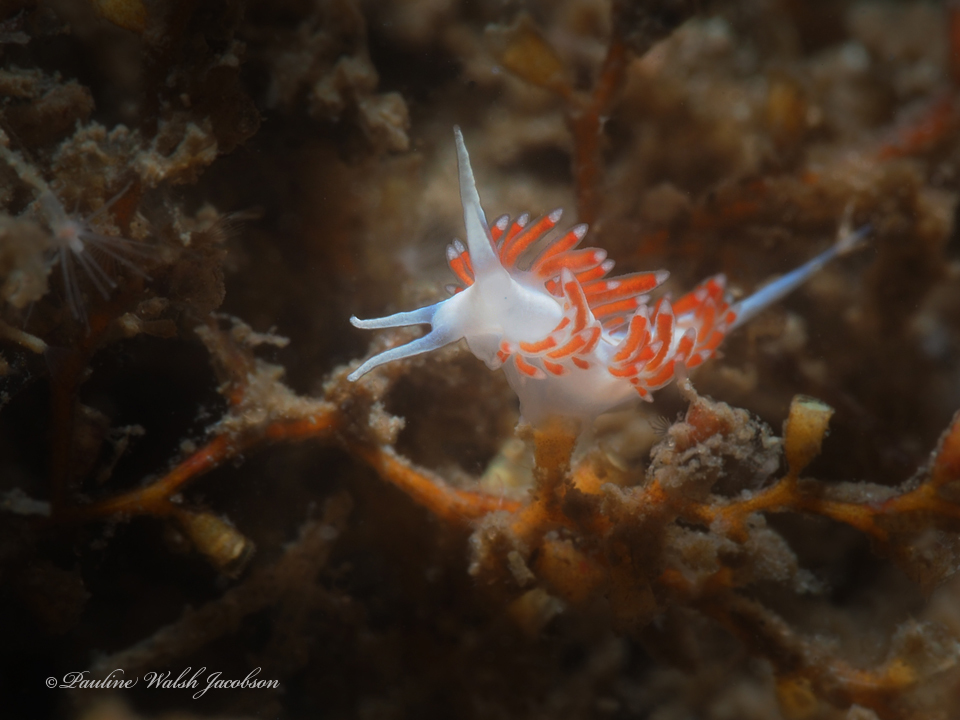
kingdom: Animalia
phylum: Mollusca
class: Gastropoda
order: Nudibranchia
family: Flabellinidae
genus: Flabellina
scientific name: Flabellina dushia
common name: Dushia flabellina
